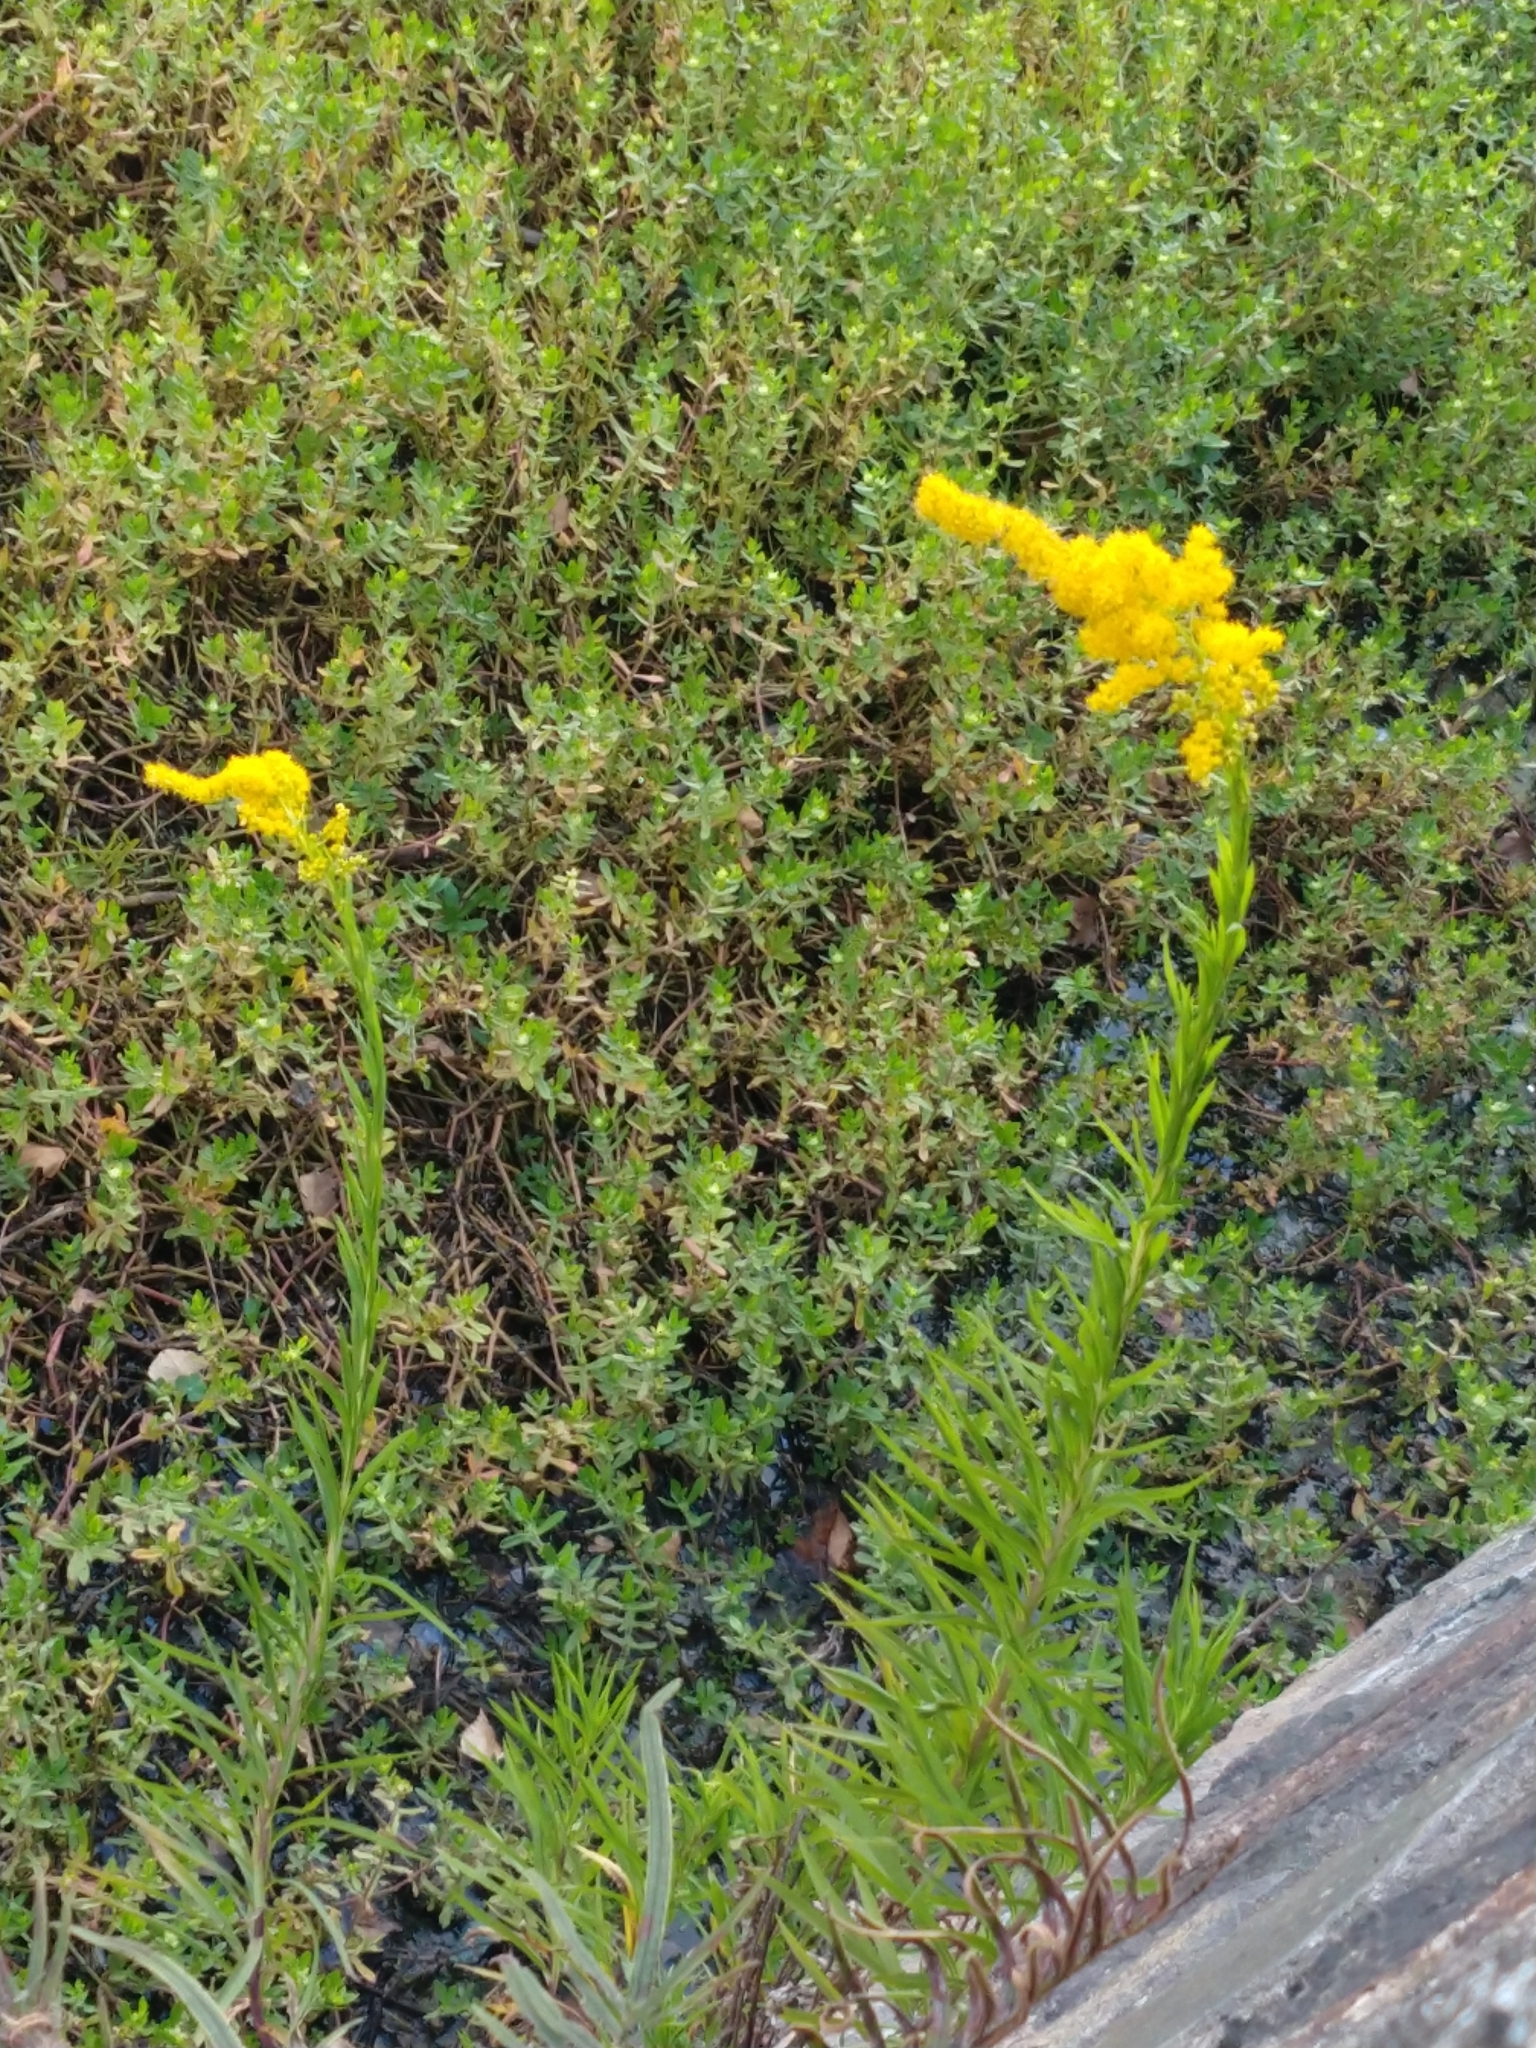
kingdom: Plantae
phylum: Tracheophyta
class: Magnoliopsida
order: Asterales
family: Asteraceae
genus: Solidago
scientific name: Solidago chilensis
